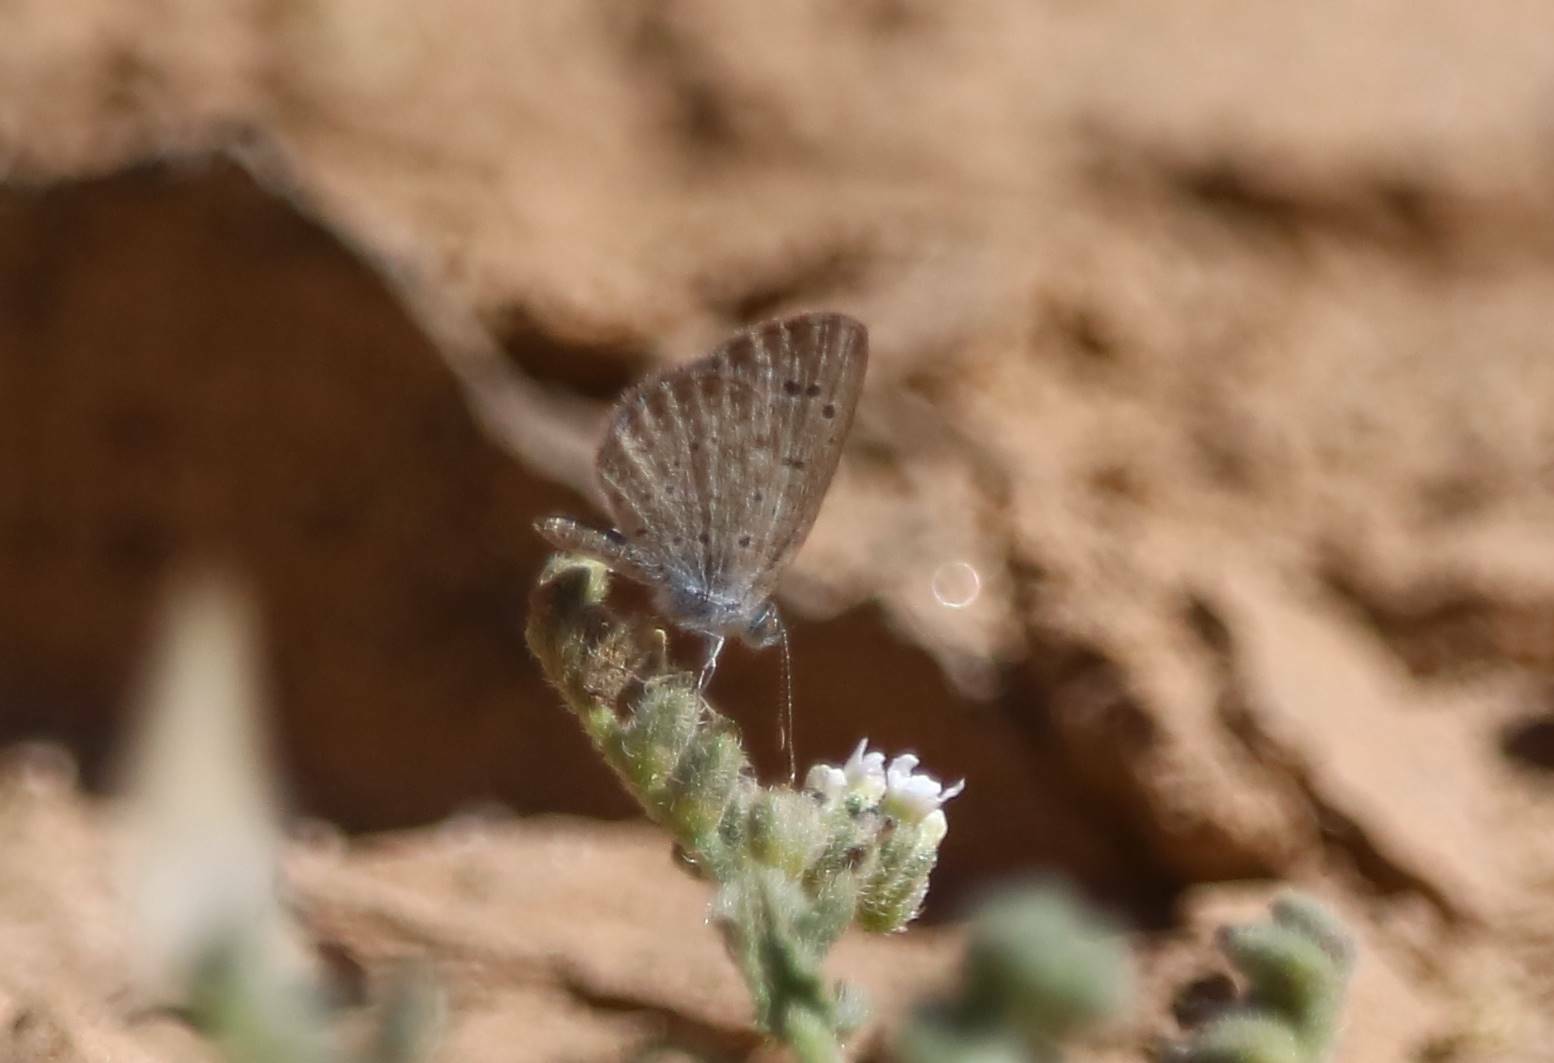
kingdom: Animalia
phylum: Arthropoda
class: Insecta
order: Lepidoptera
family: Lycaenidae
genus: Zizeeria
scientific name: Zizeeria knysna
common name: African grass blue
